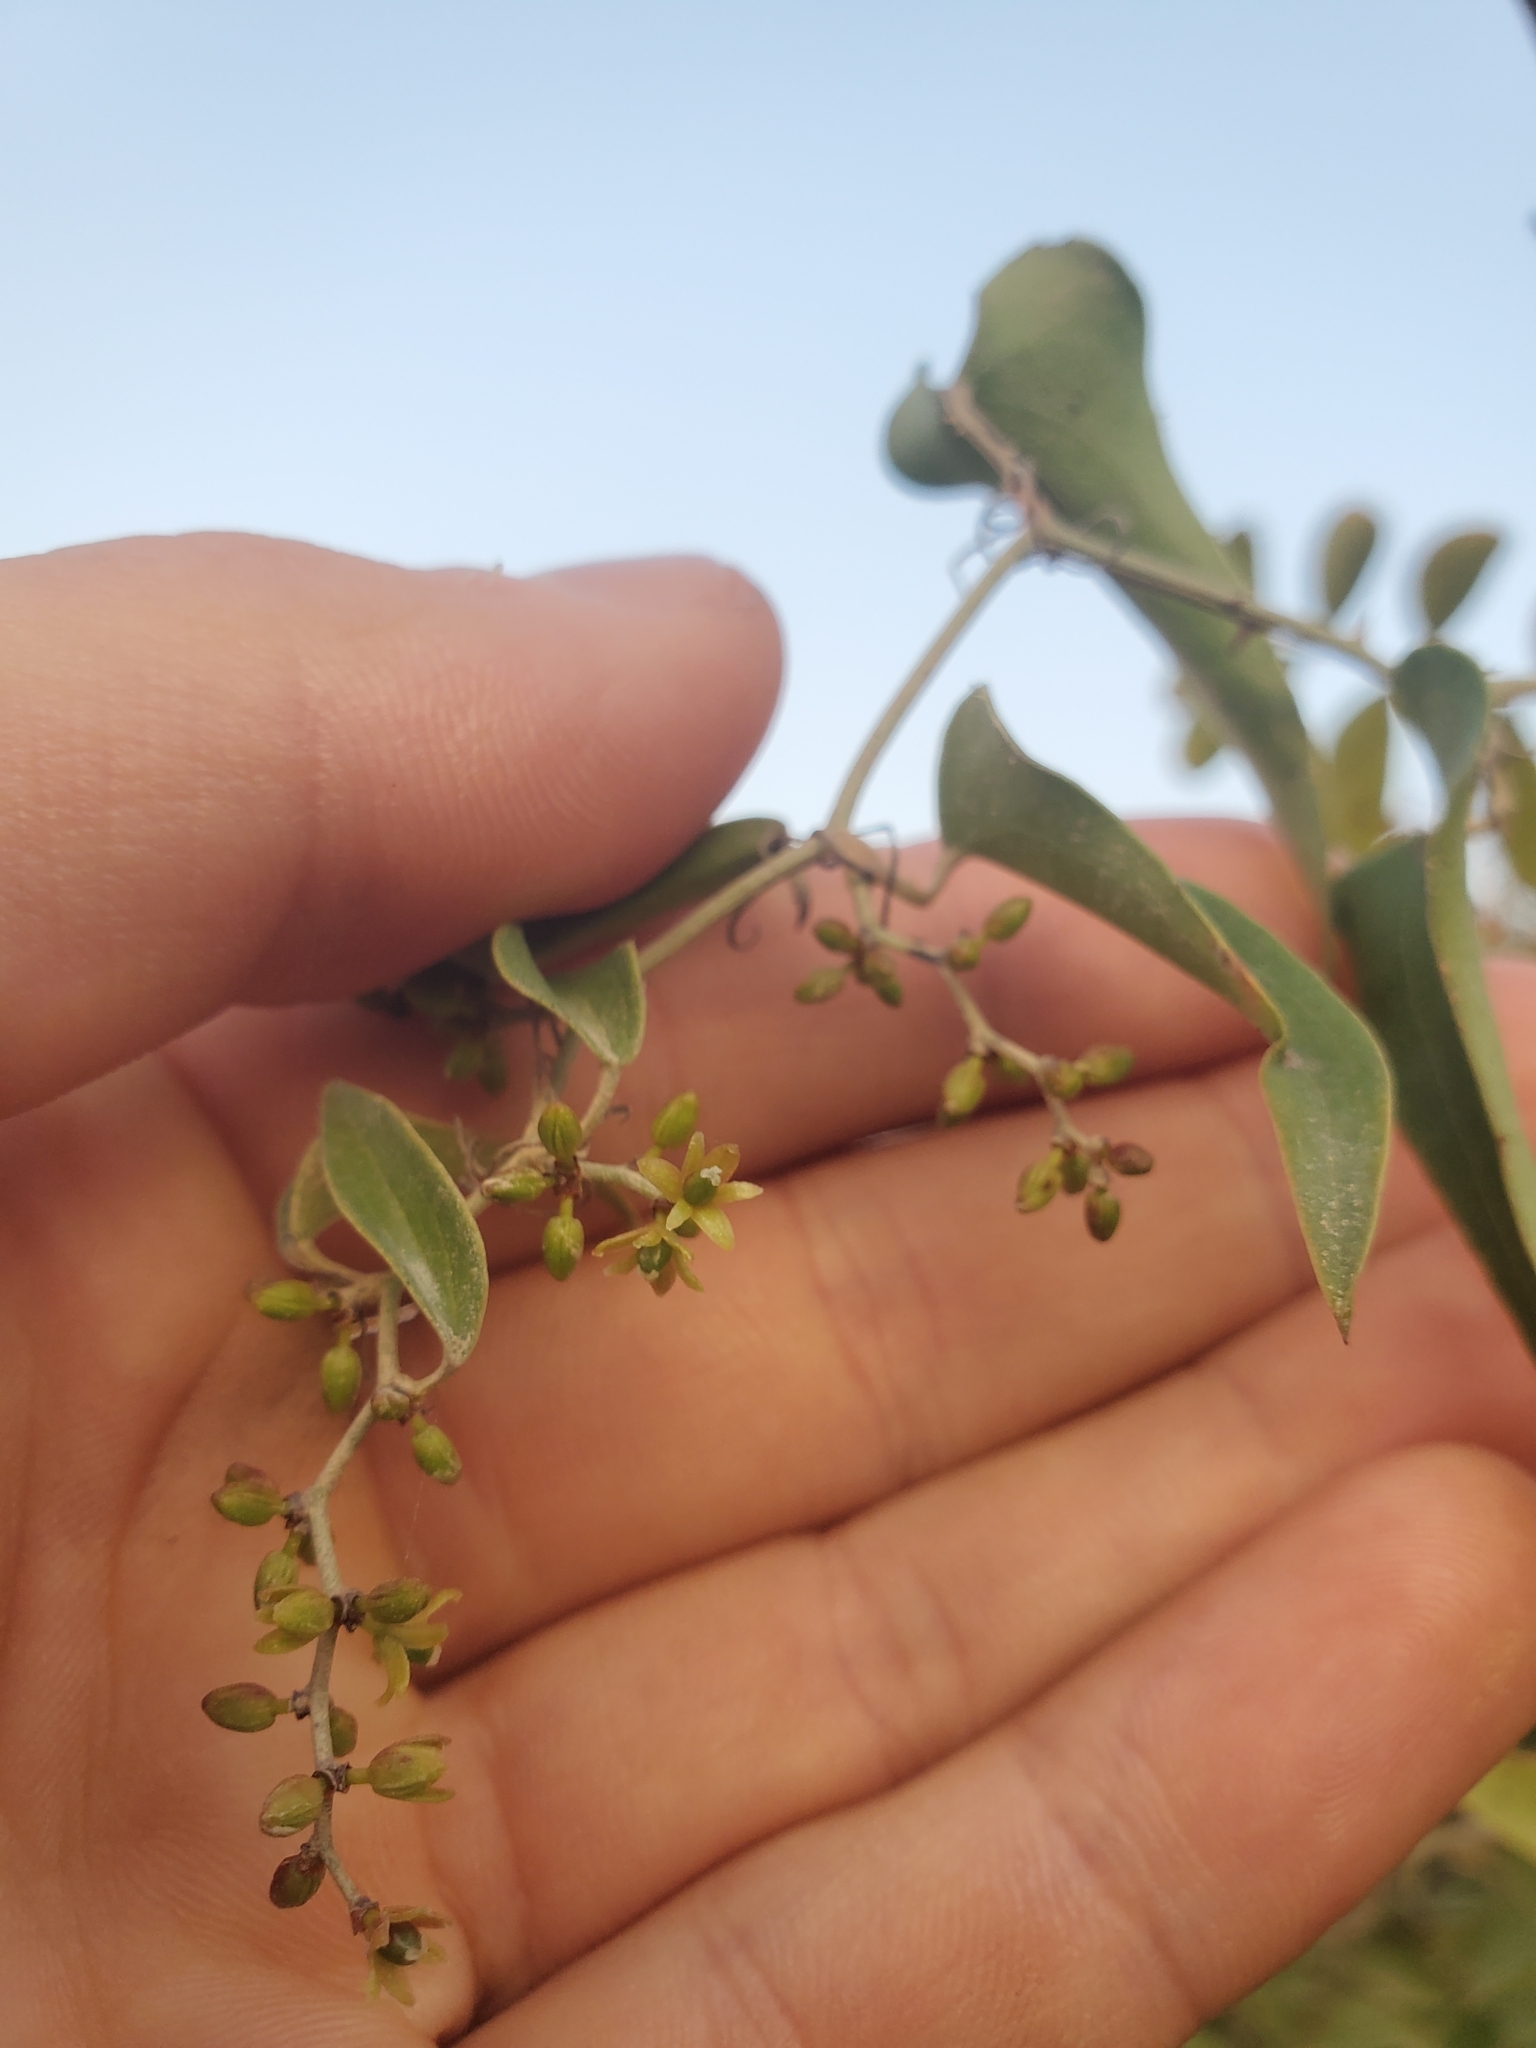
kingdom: Plantae
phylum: Tracheophyta
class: Liliopsida
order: Liliales
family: Smilacaceae
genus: Smilax
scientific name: Smilax aspera
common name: Common smilax
